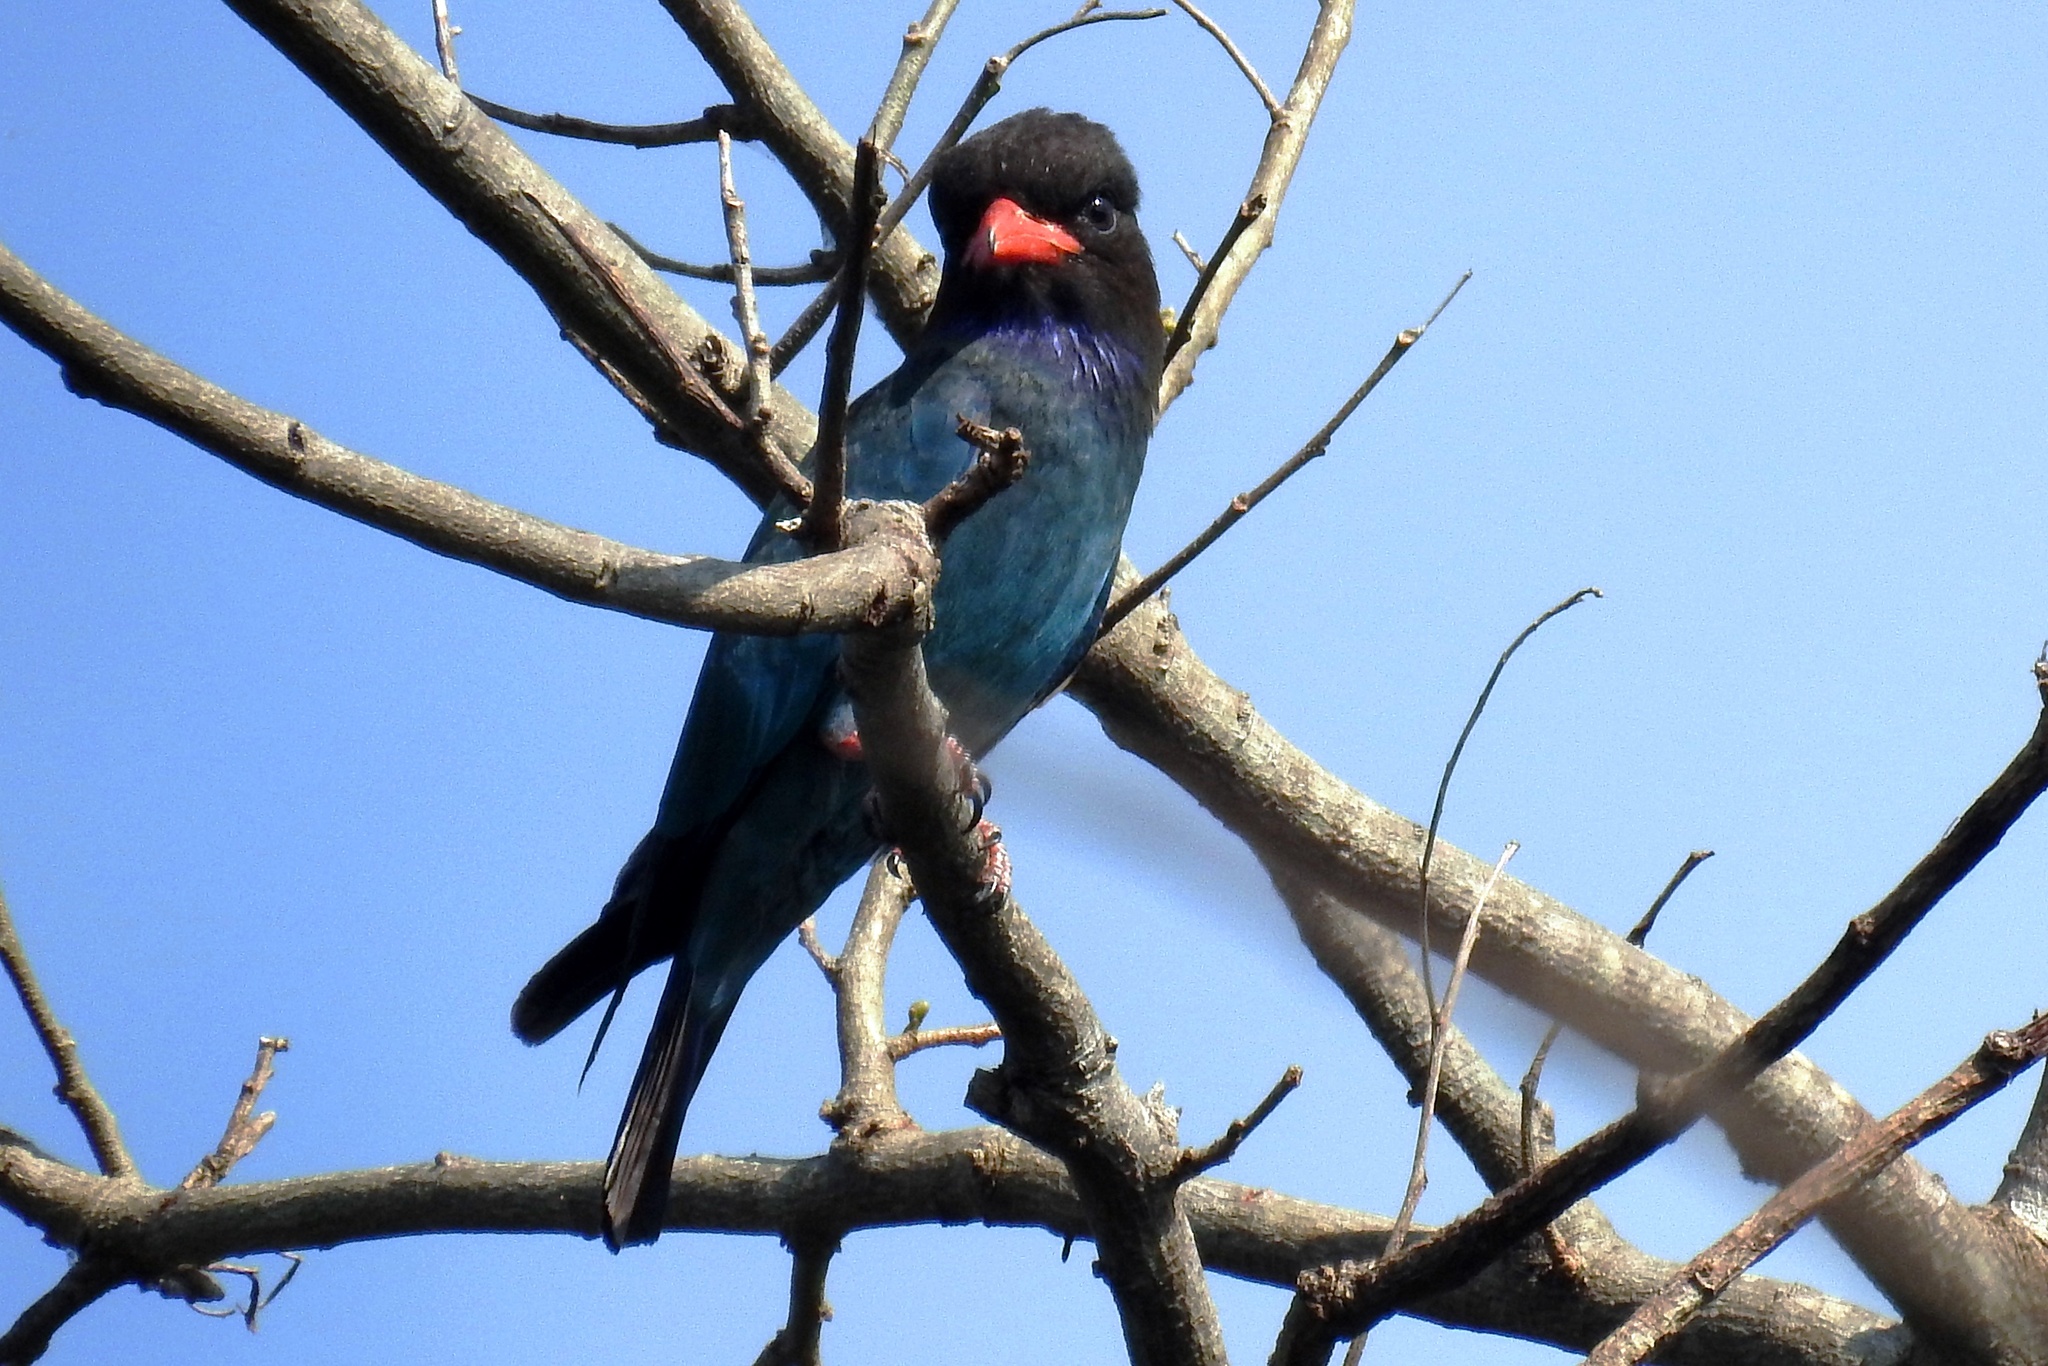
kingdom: Animalia
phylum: Chordata
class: Aves
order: Coraciiformes
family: Coraciidae
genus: Eurystomus
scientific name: Eurystomus orientalis
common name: Oriental dollarbird
